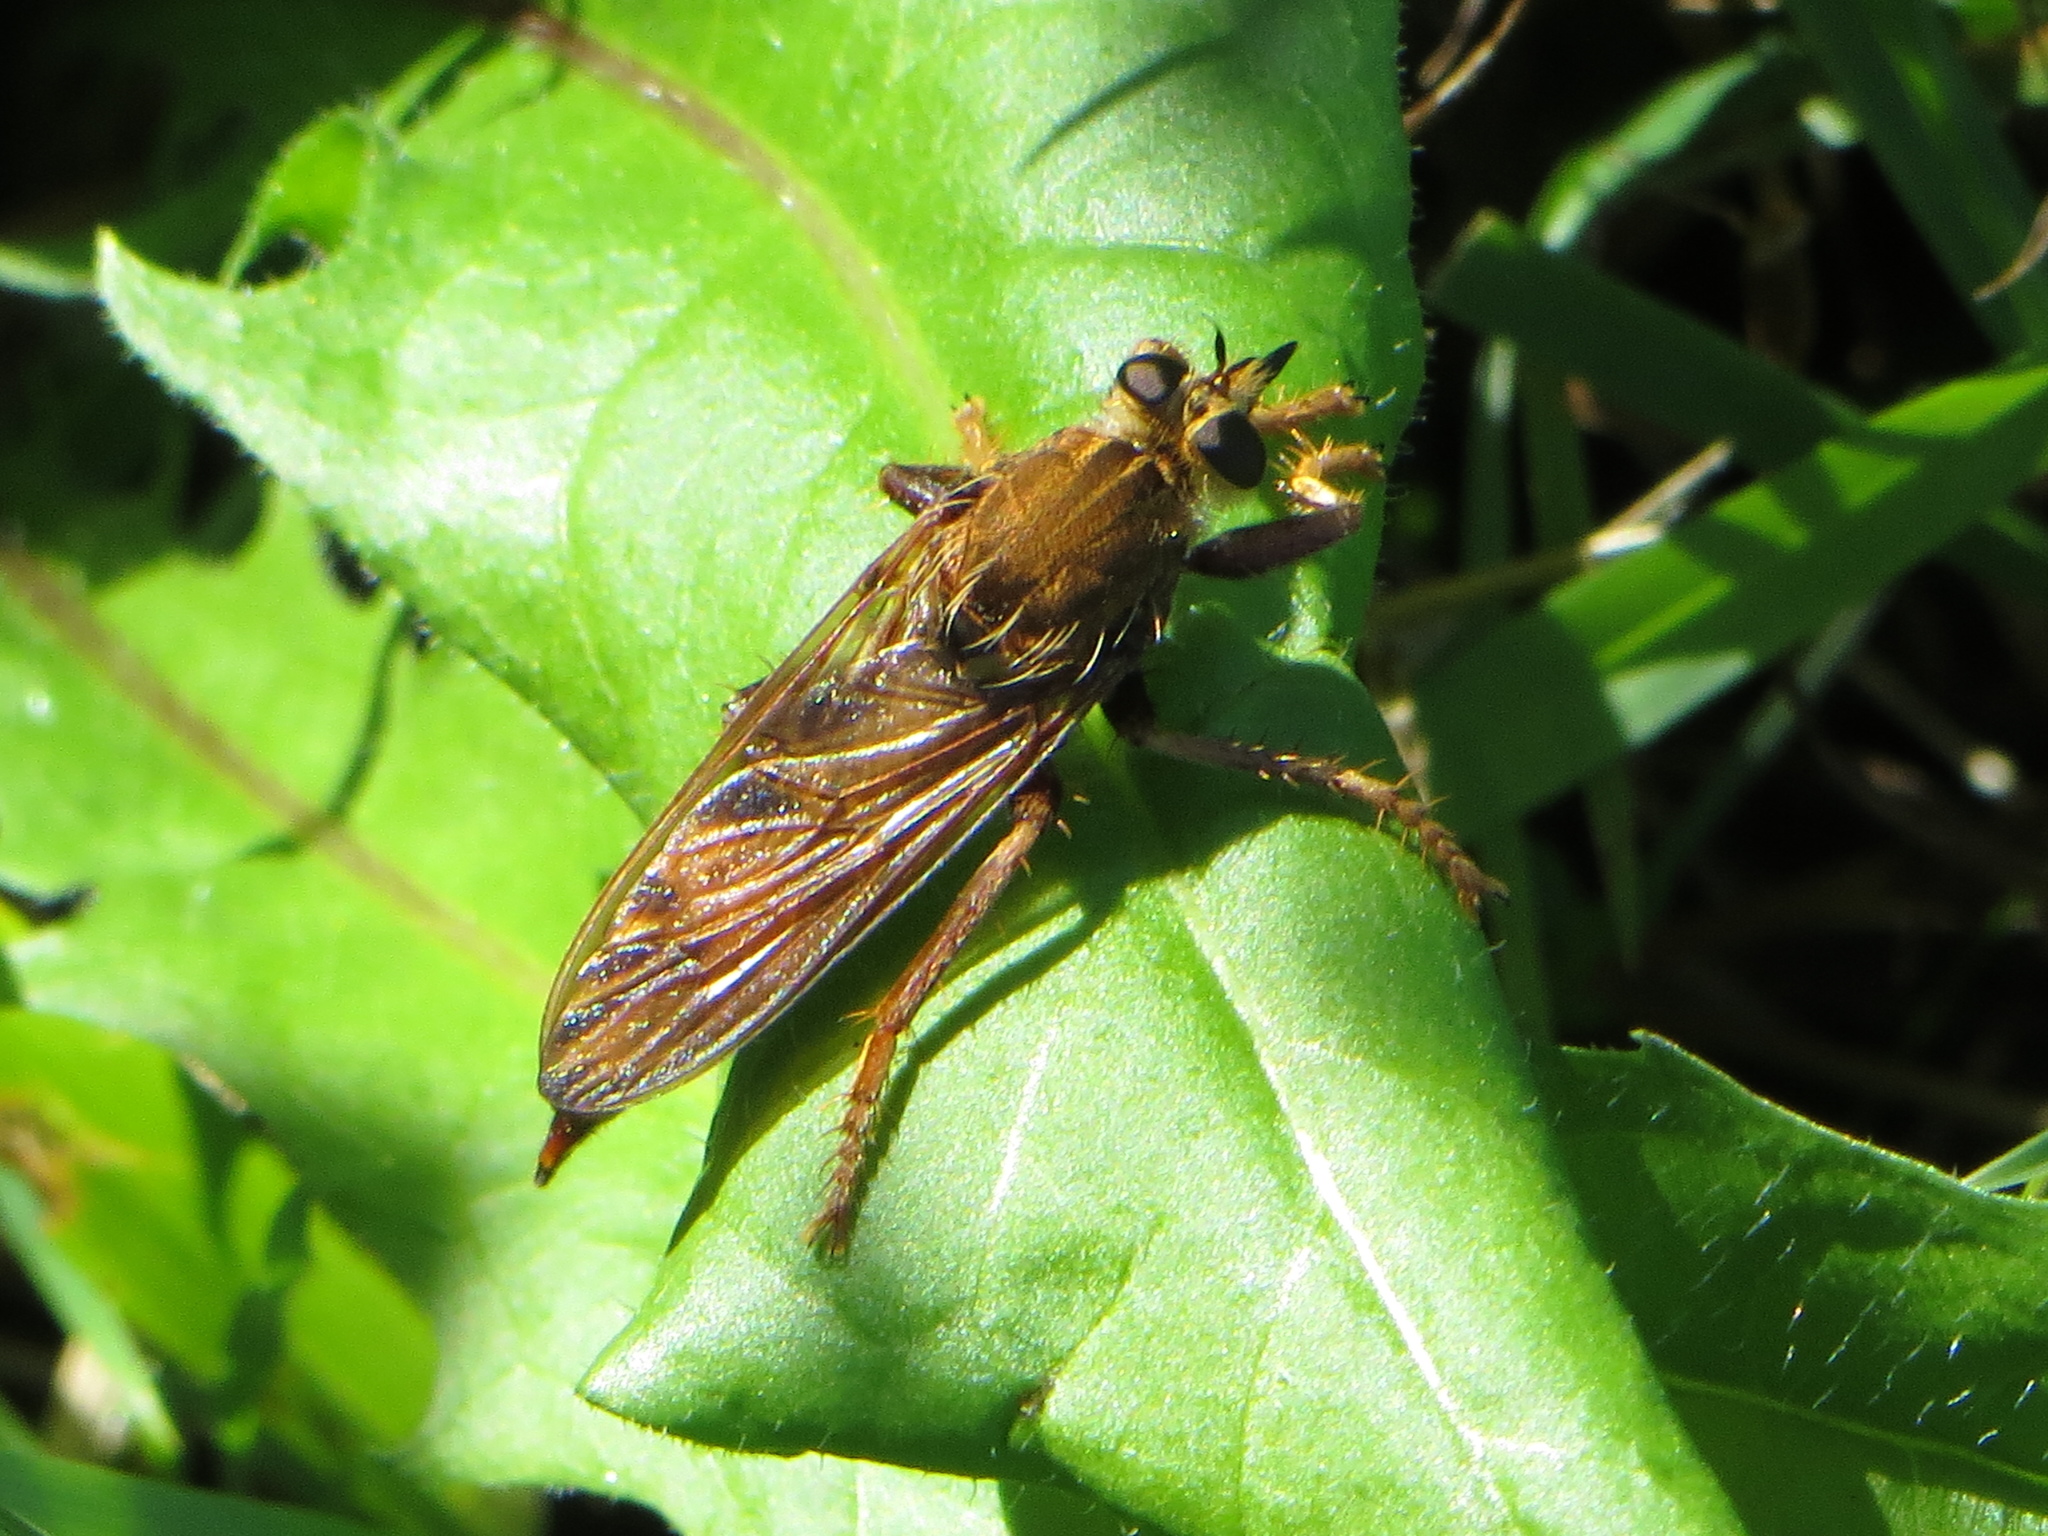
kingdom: Animalia
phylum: Arthropoda
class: Insecta
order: Diptera
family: Asilidae
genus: Asilus
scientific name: Asilus crabroniformis
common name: Hornet robberfly
